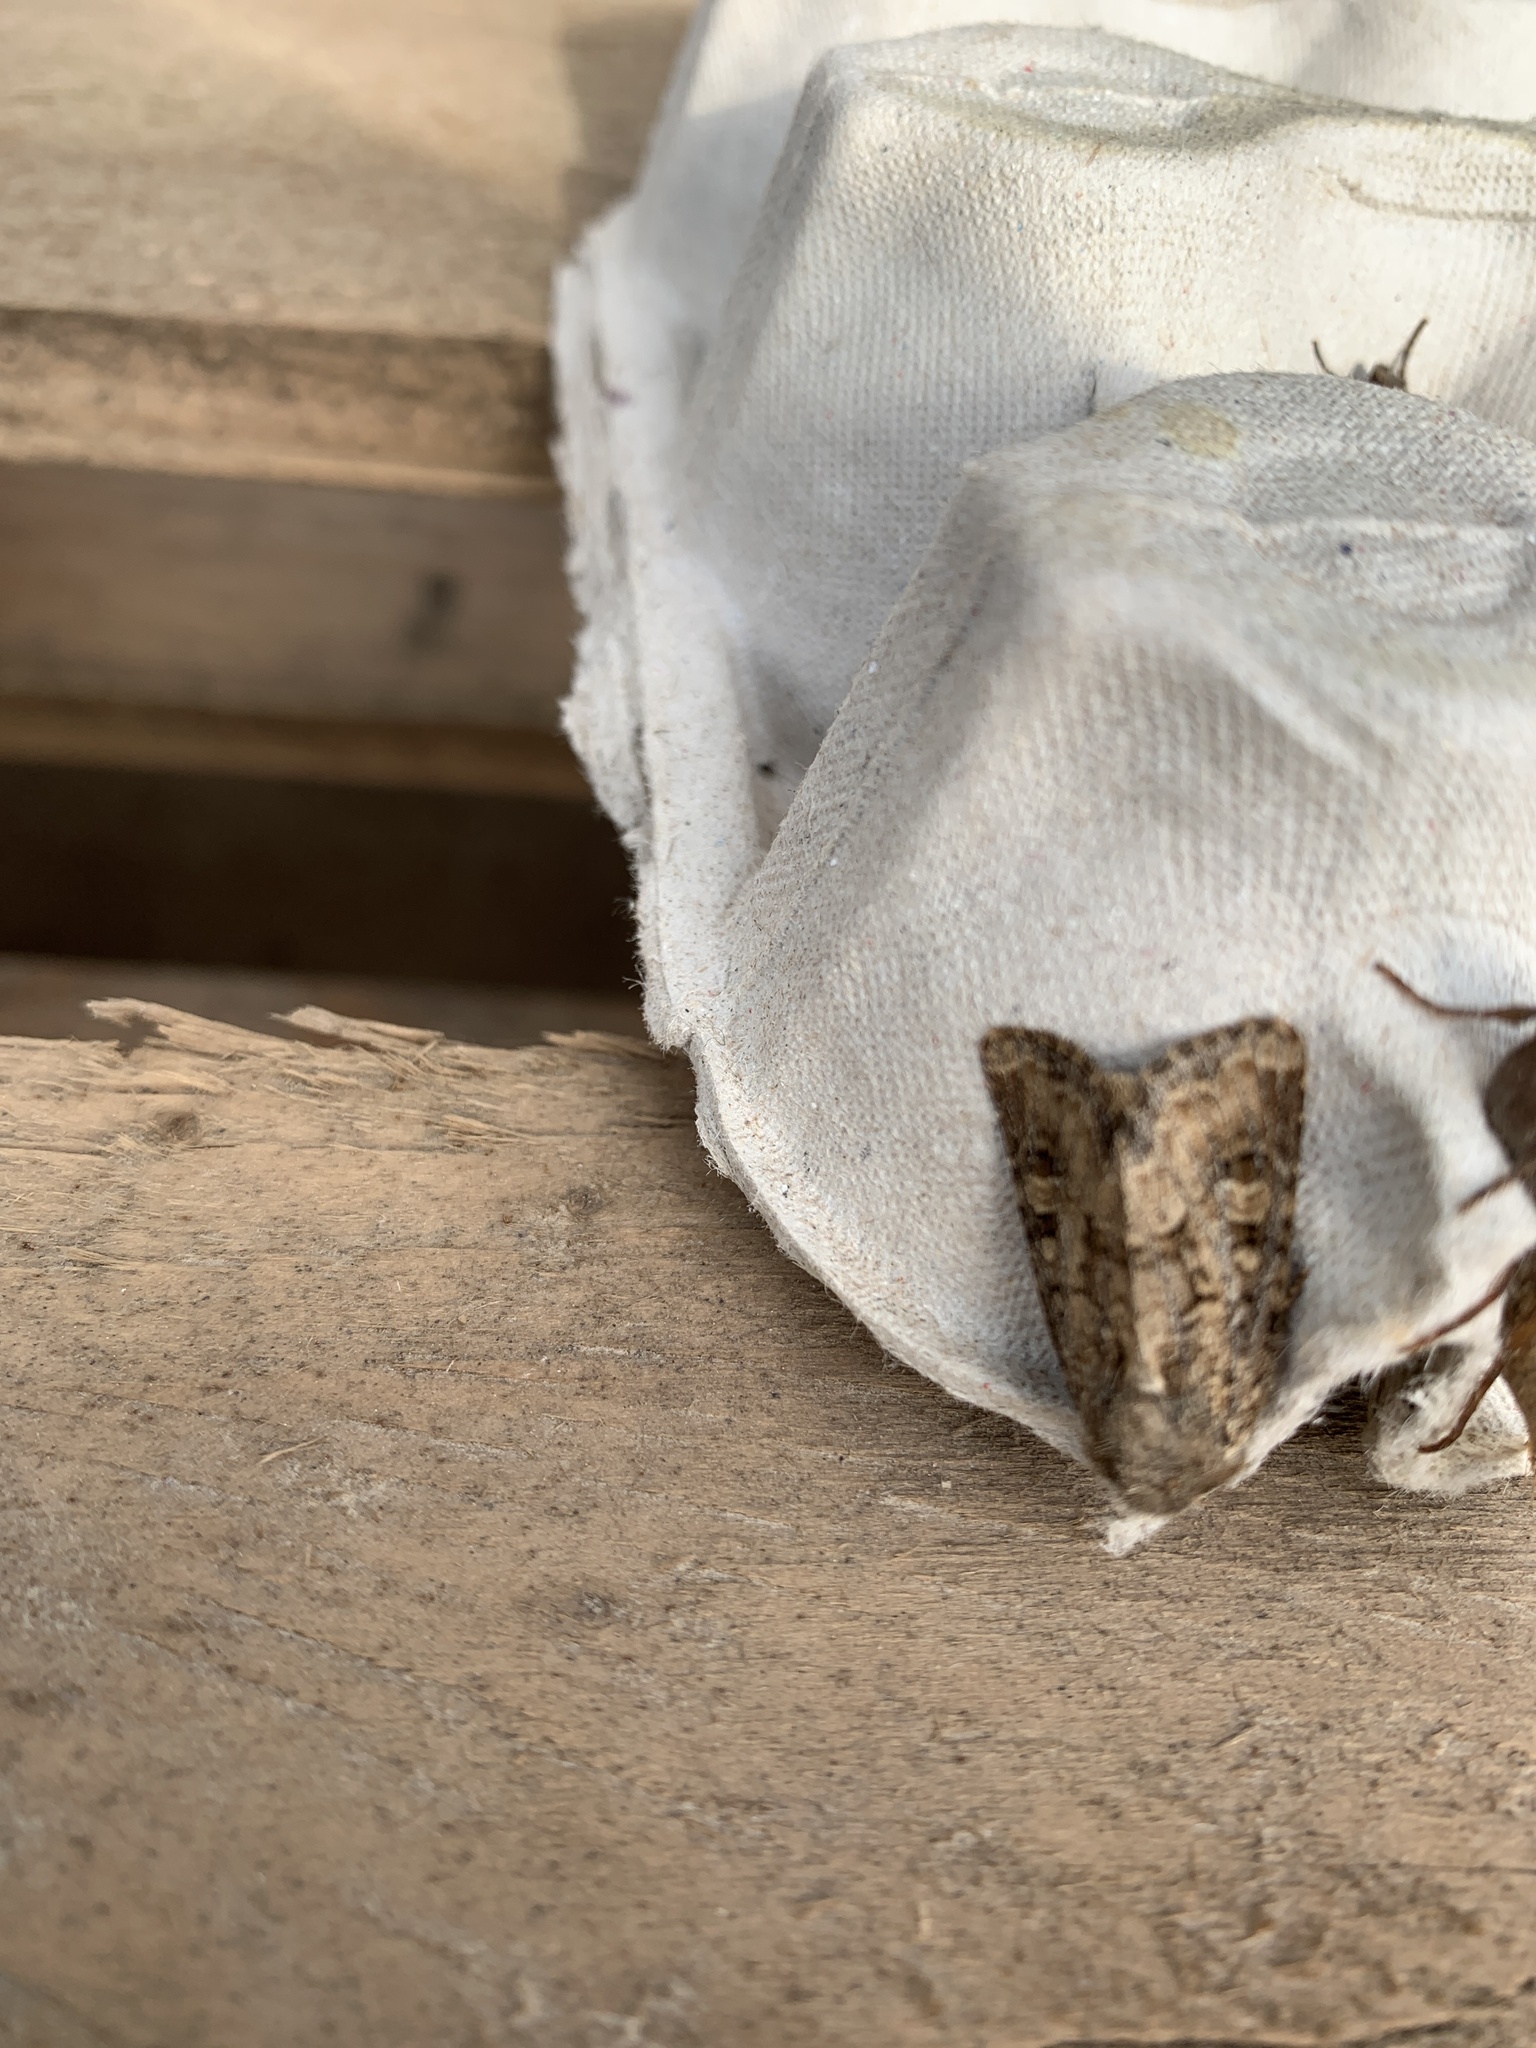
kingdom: Animalia
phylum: Arthropoda
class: Insecta
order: Lepidoptera
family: Noctuidae
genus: Luperina
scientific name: Luperina testacea
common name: Flounced rustic
